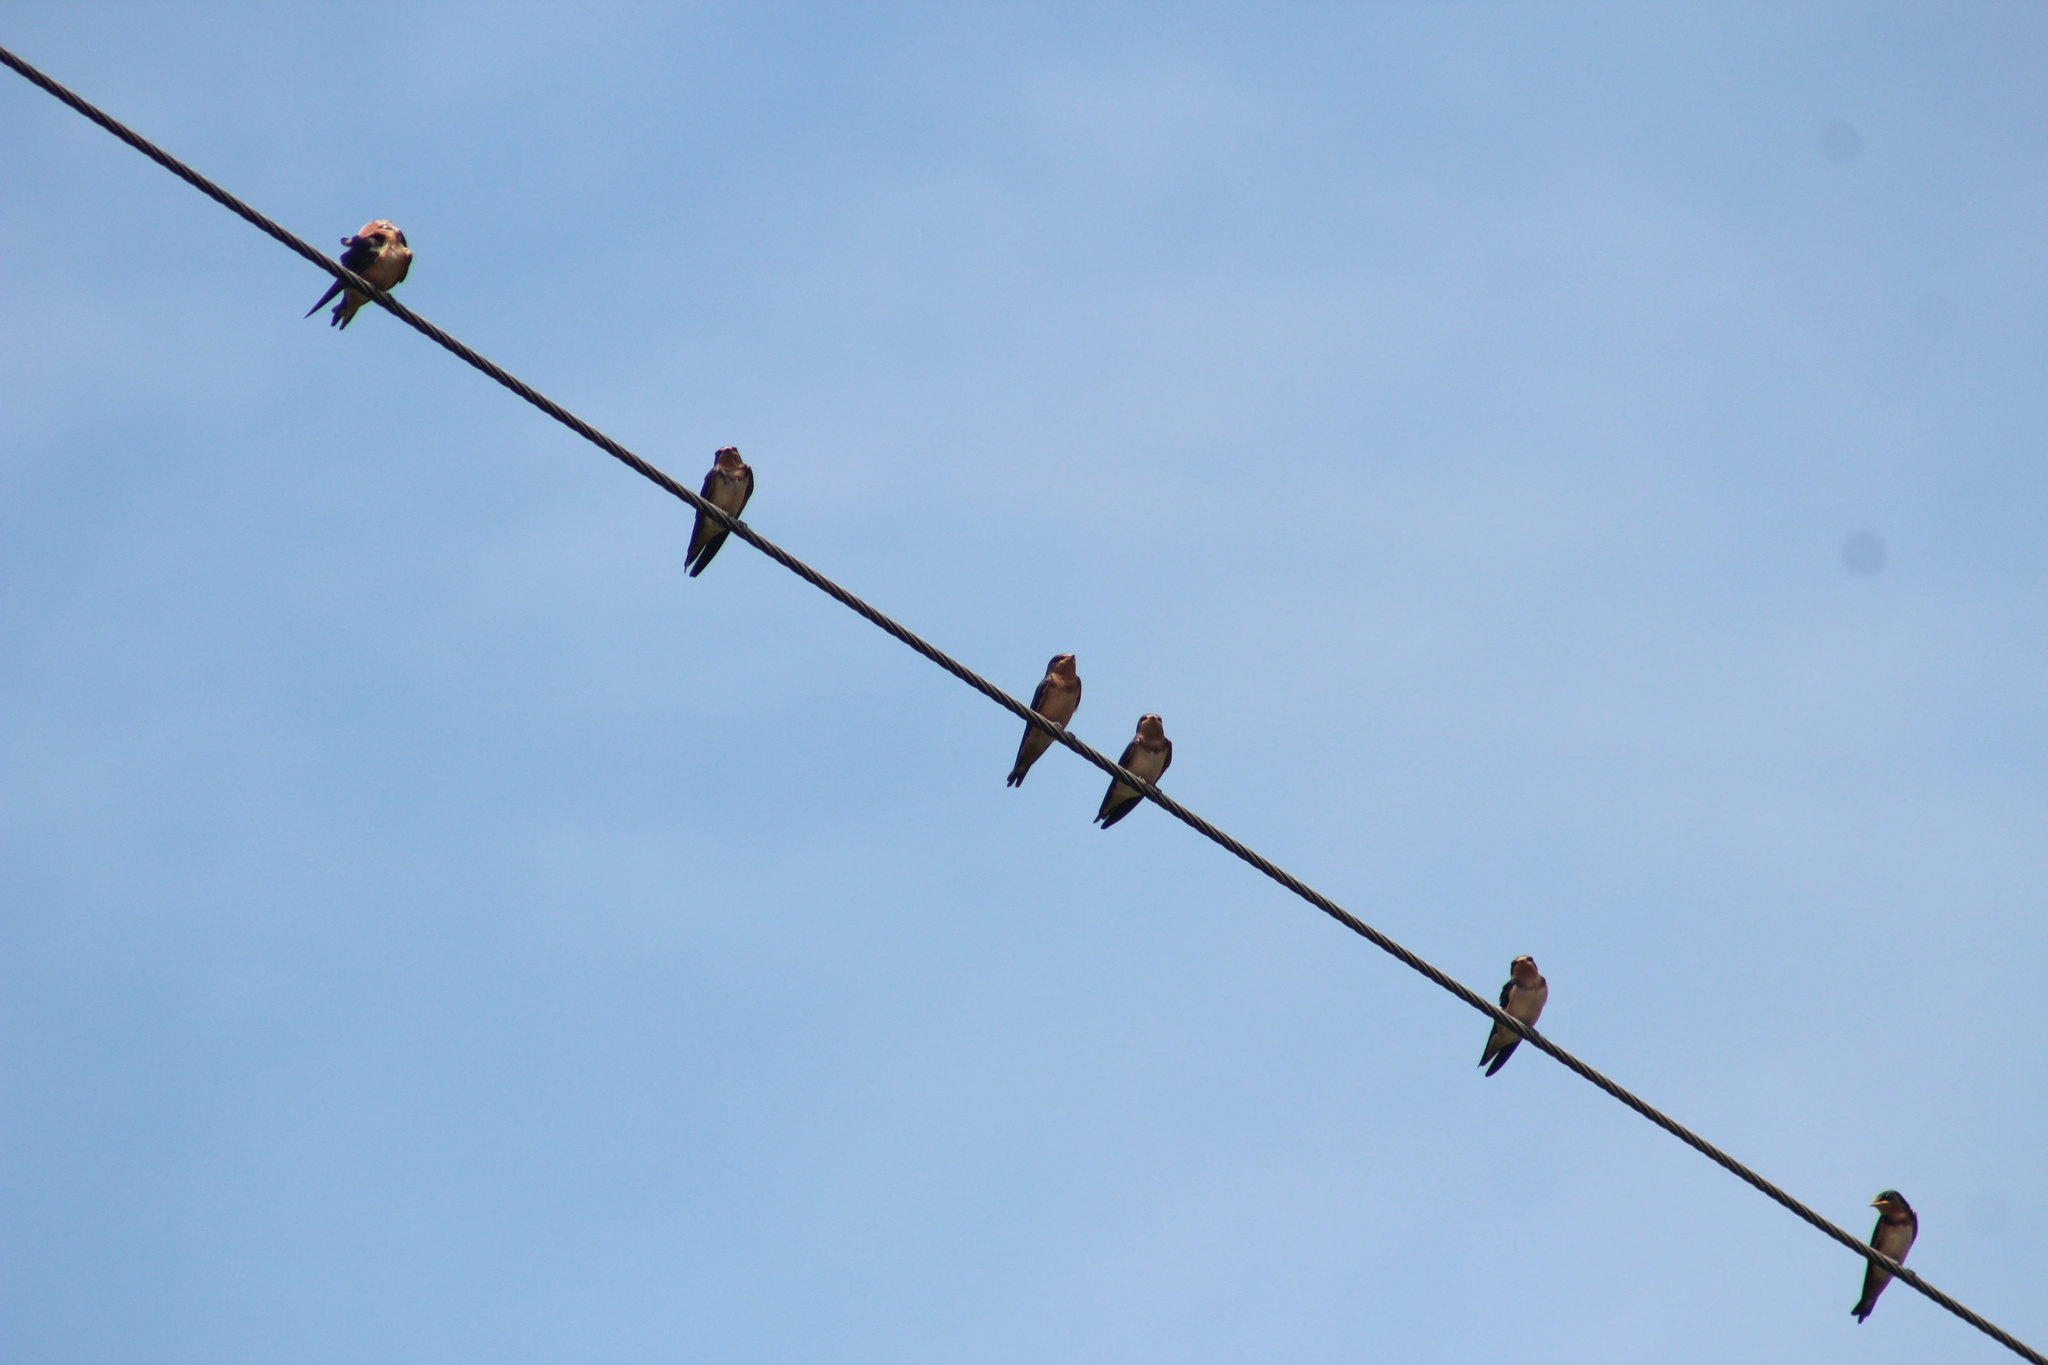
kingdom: Animalia
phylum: Chordata
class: Aves
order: Passeriformes
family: Hirundinidae
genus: Hirundo
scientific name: Hirundo rustica
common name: Barn swallow
